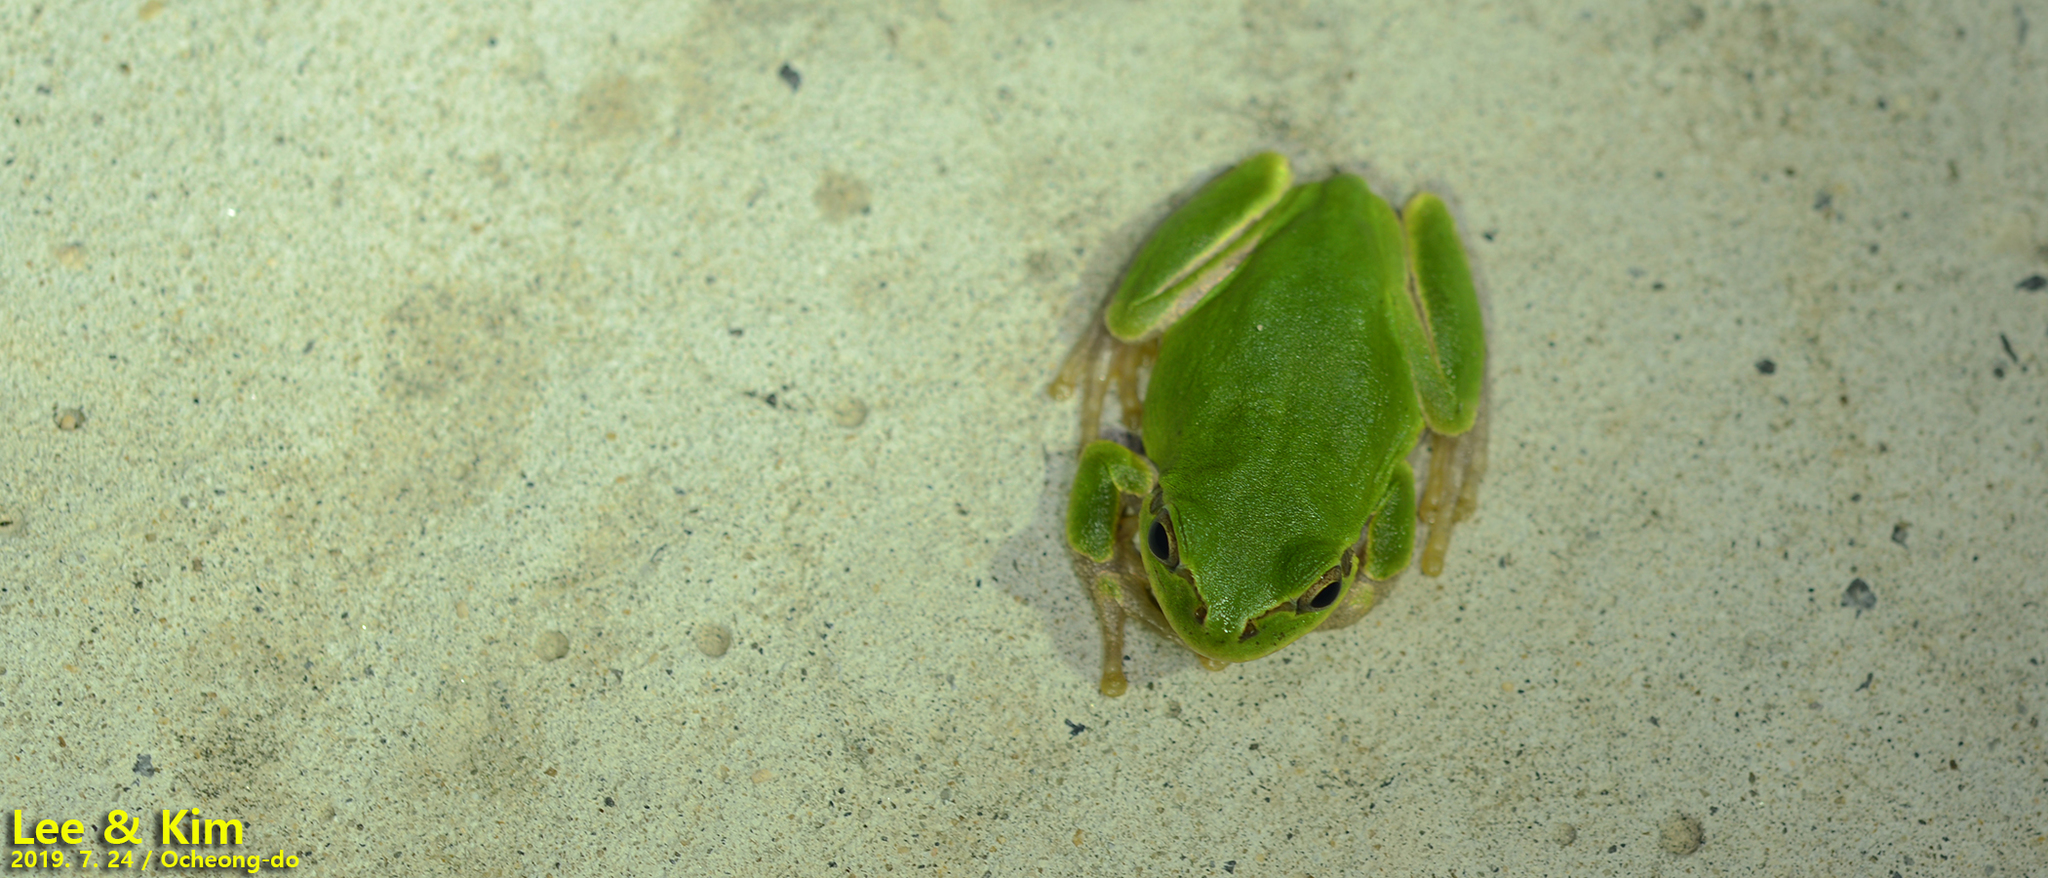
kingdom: Animalia
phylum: Chordata
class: Amphibia
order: Anura
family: Hylidae
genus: Dryophytes
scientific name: Dryophytes japonicus
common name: Japanese treefrog
